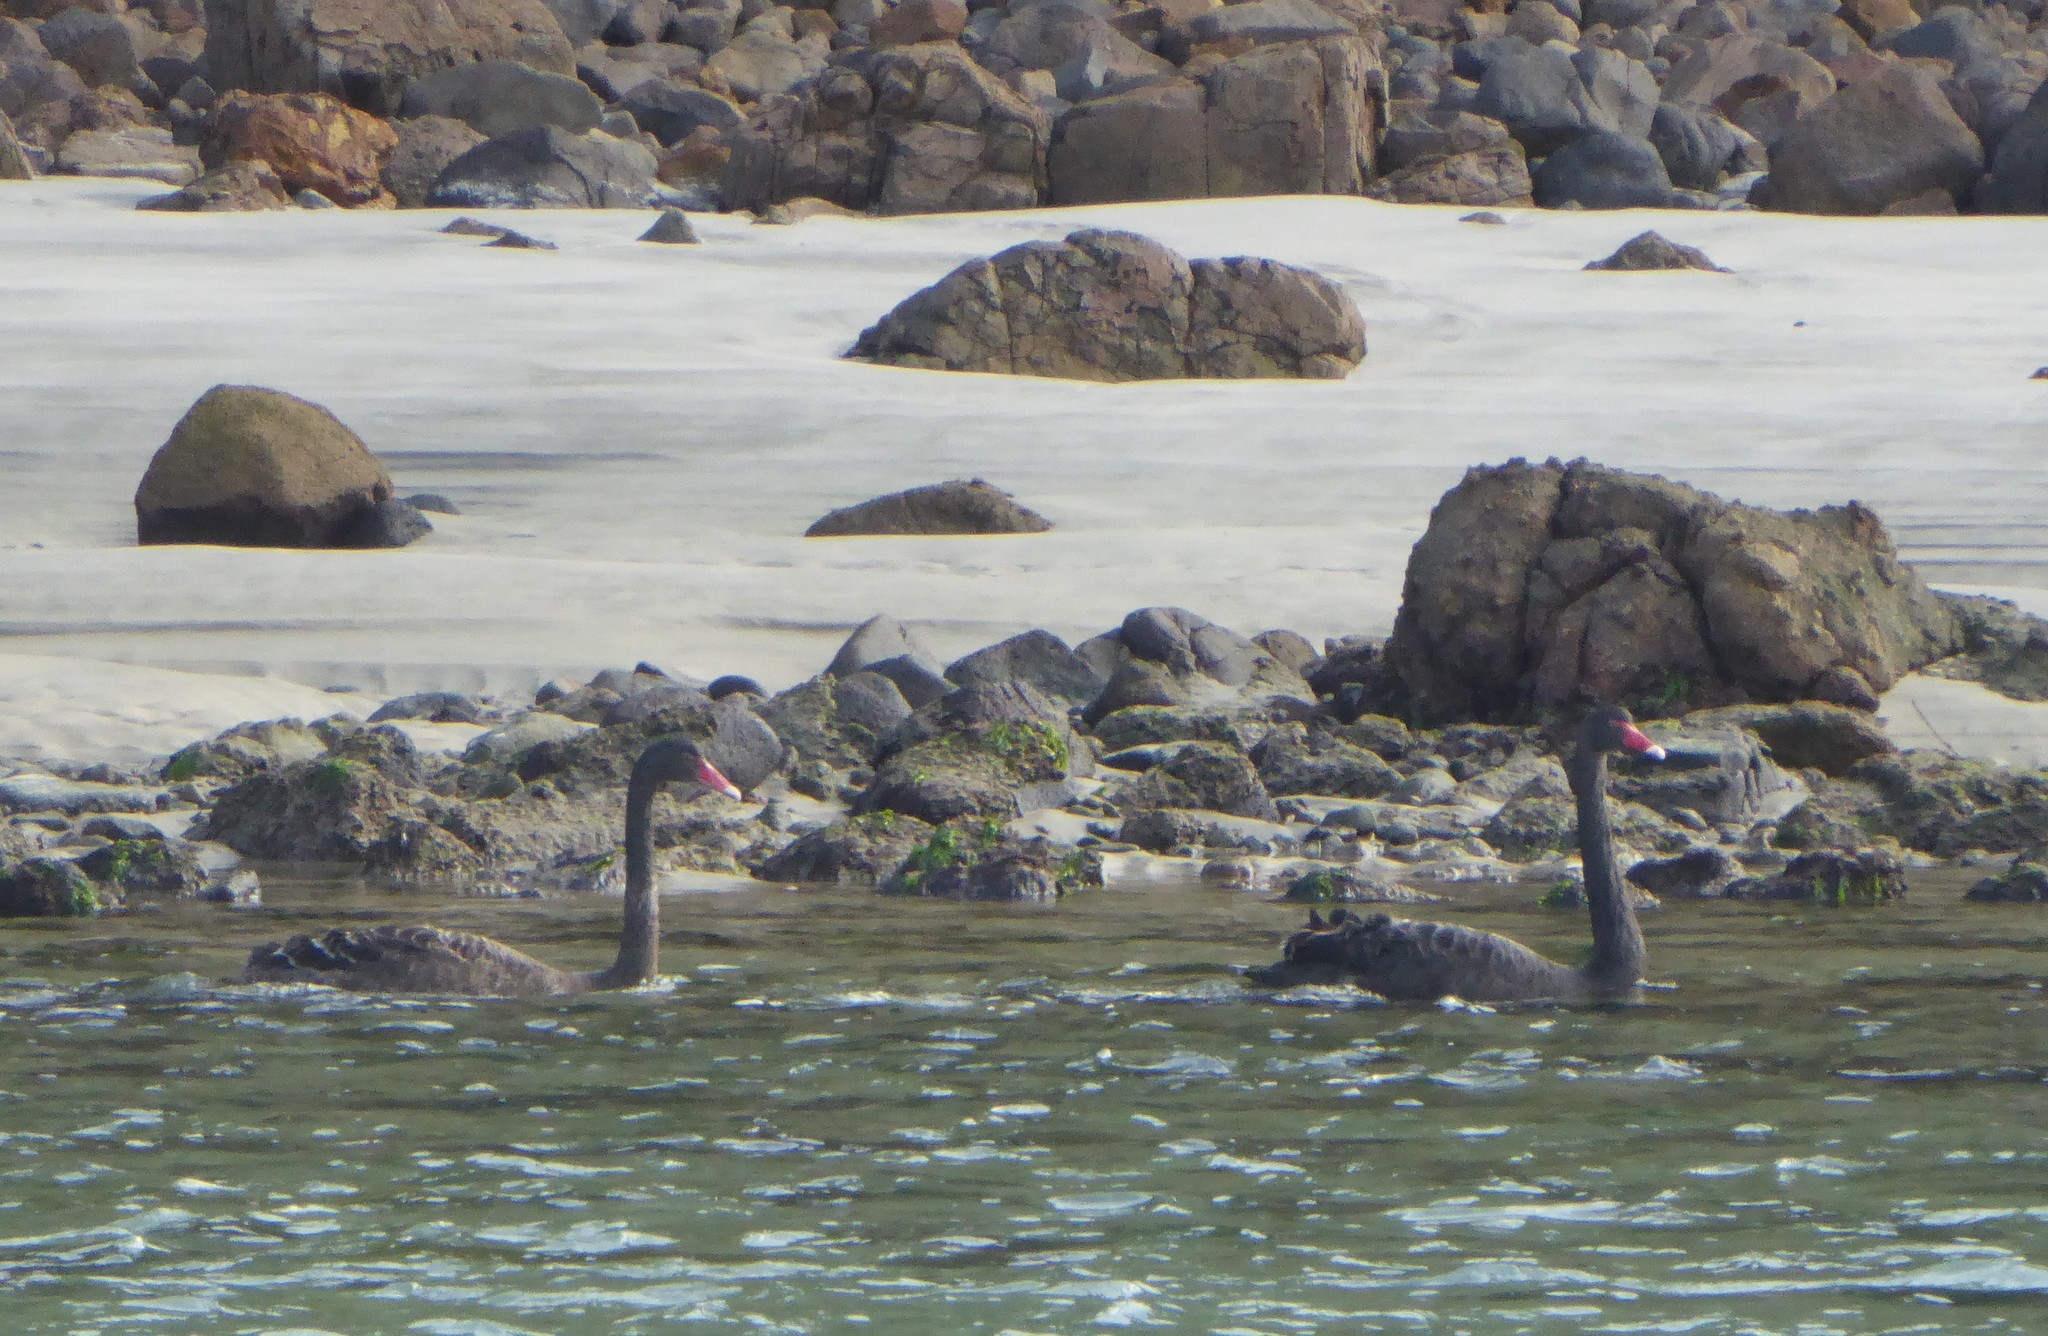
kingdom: Animalia
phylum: Chordata
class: Aves
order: Anseriformes
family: Anatidae
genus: Cygnus
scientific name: Cygnus atratus
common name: Black swan
